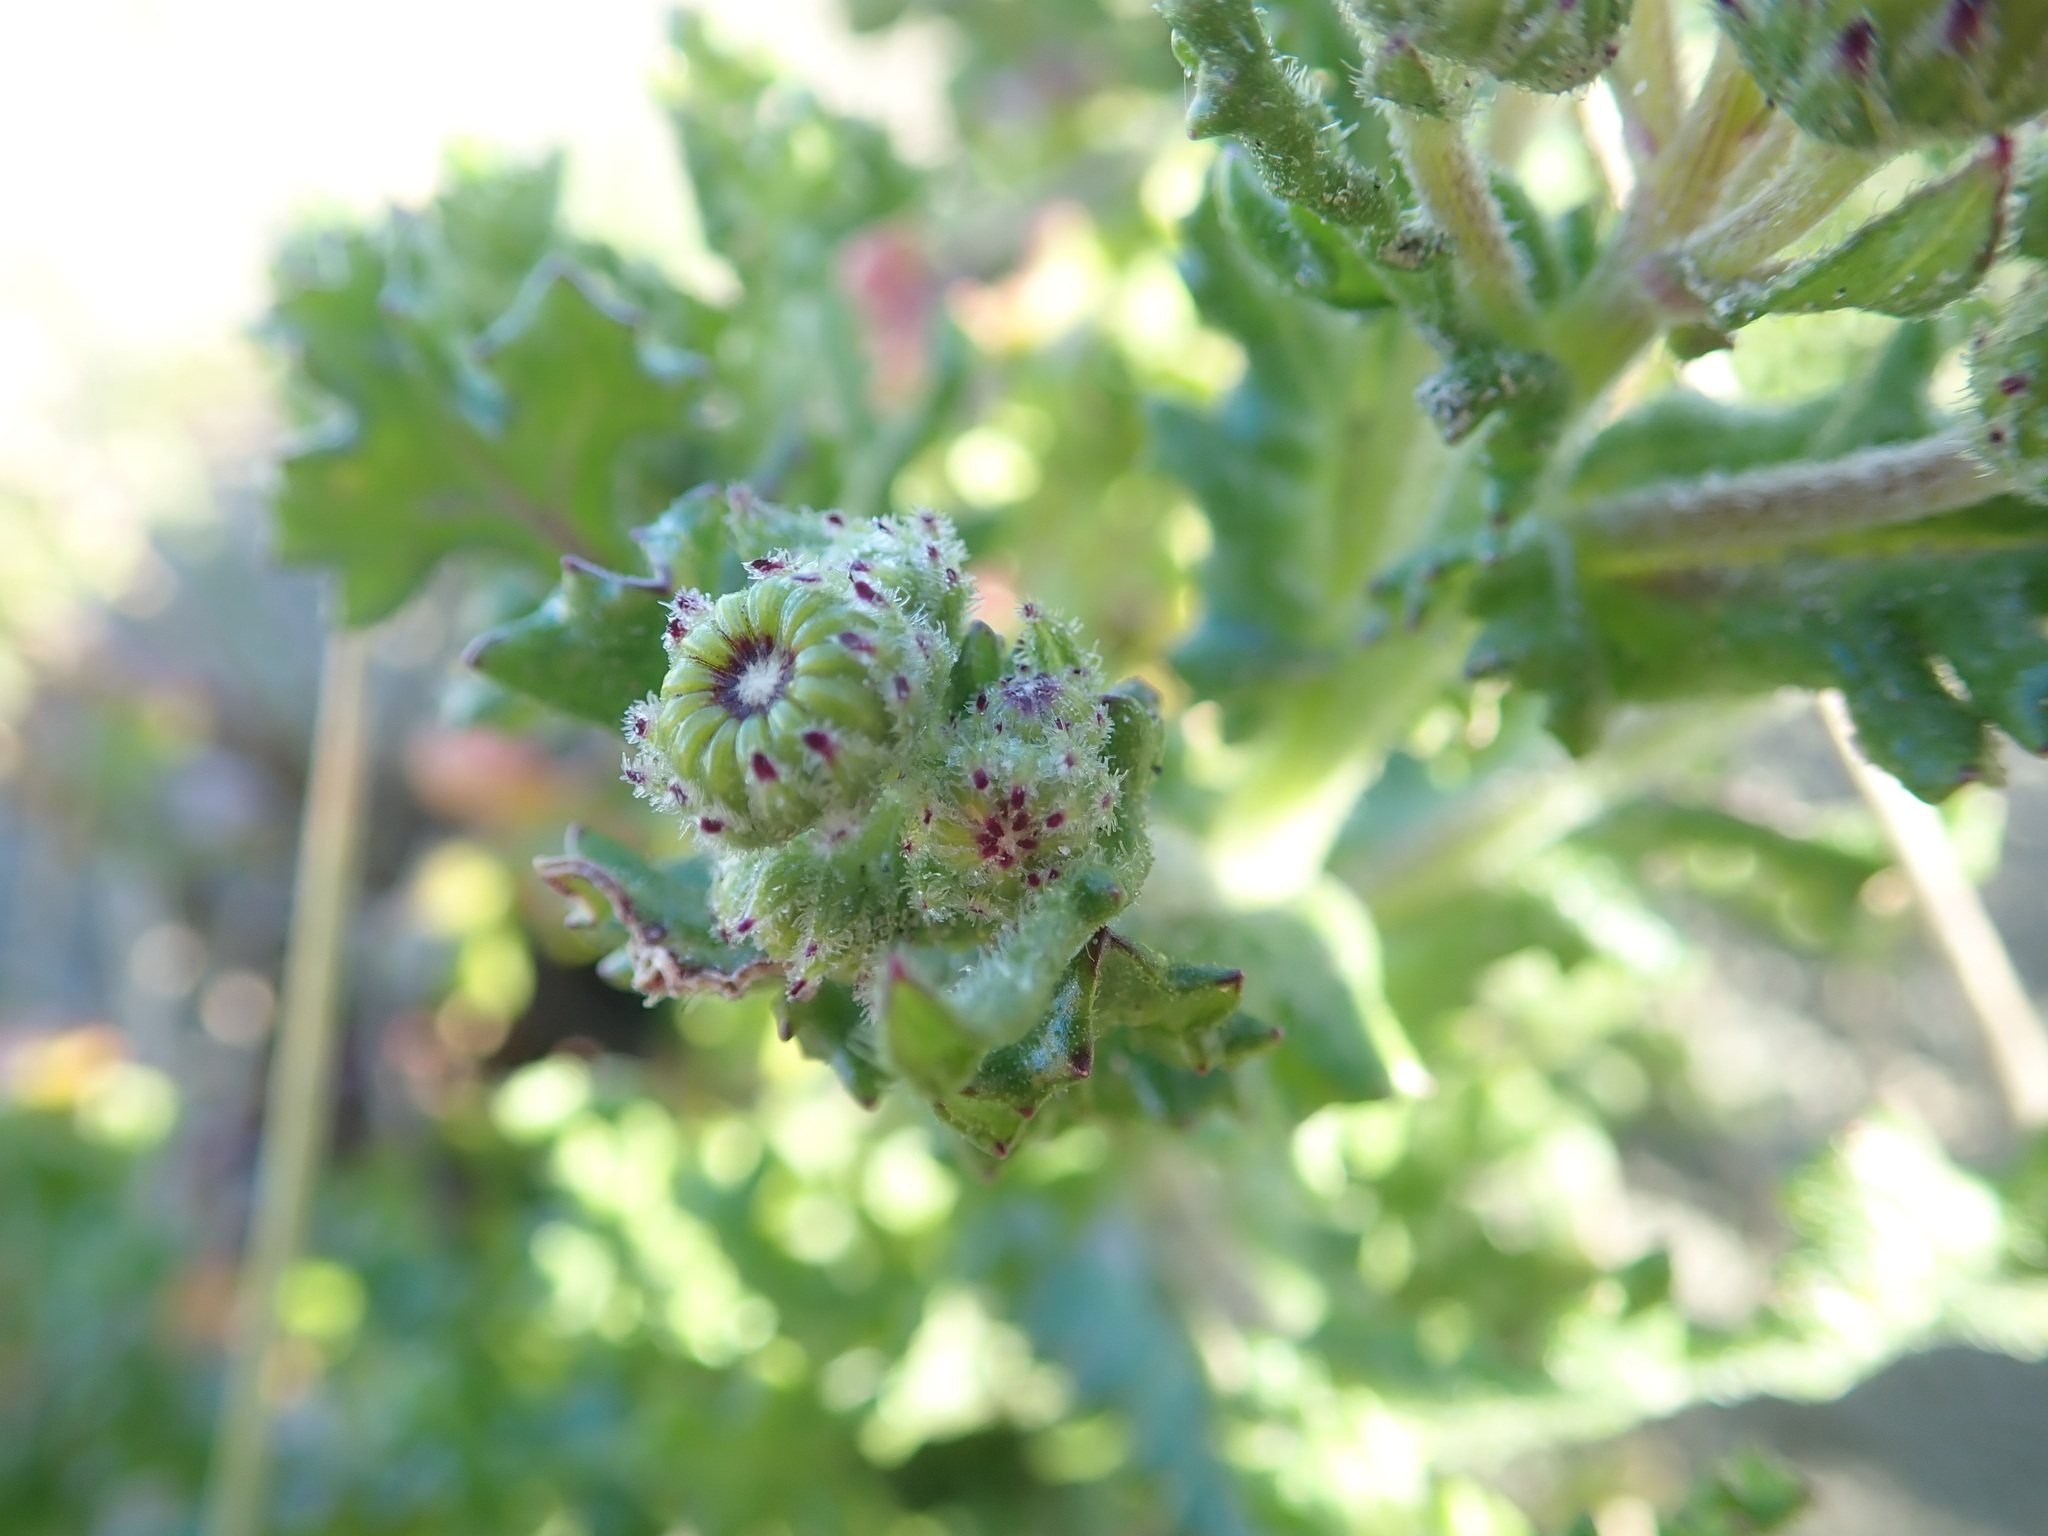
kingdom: Plantae
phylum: Tracheophyta
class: Magnoliopsida
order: Asterales
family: Asteraceae
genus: Senecio
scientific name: Senecio elegans
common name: Purple groundsel
